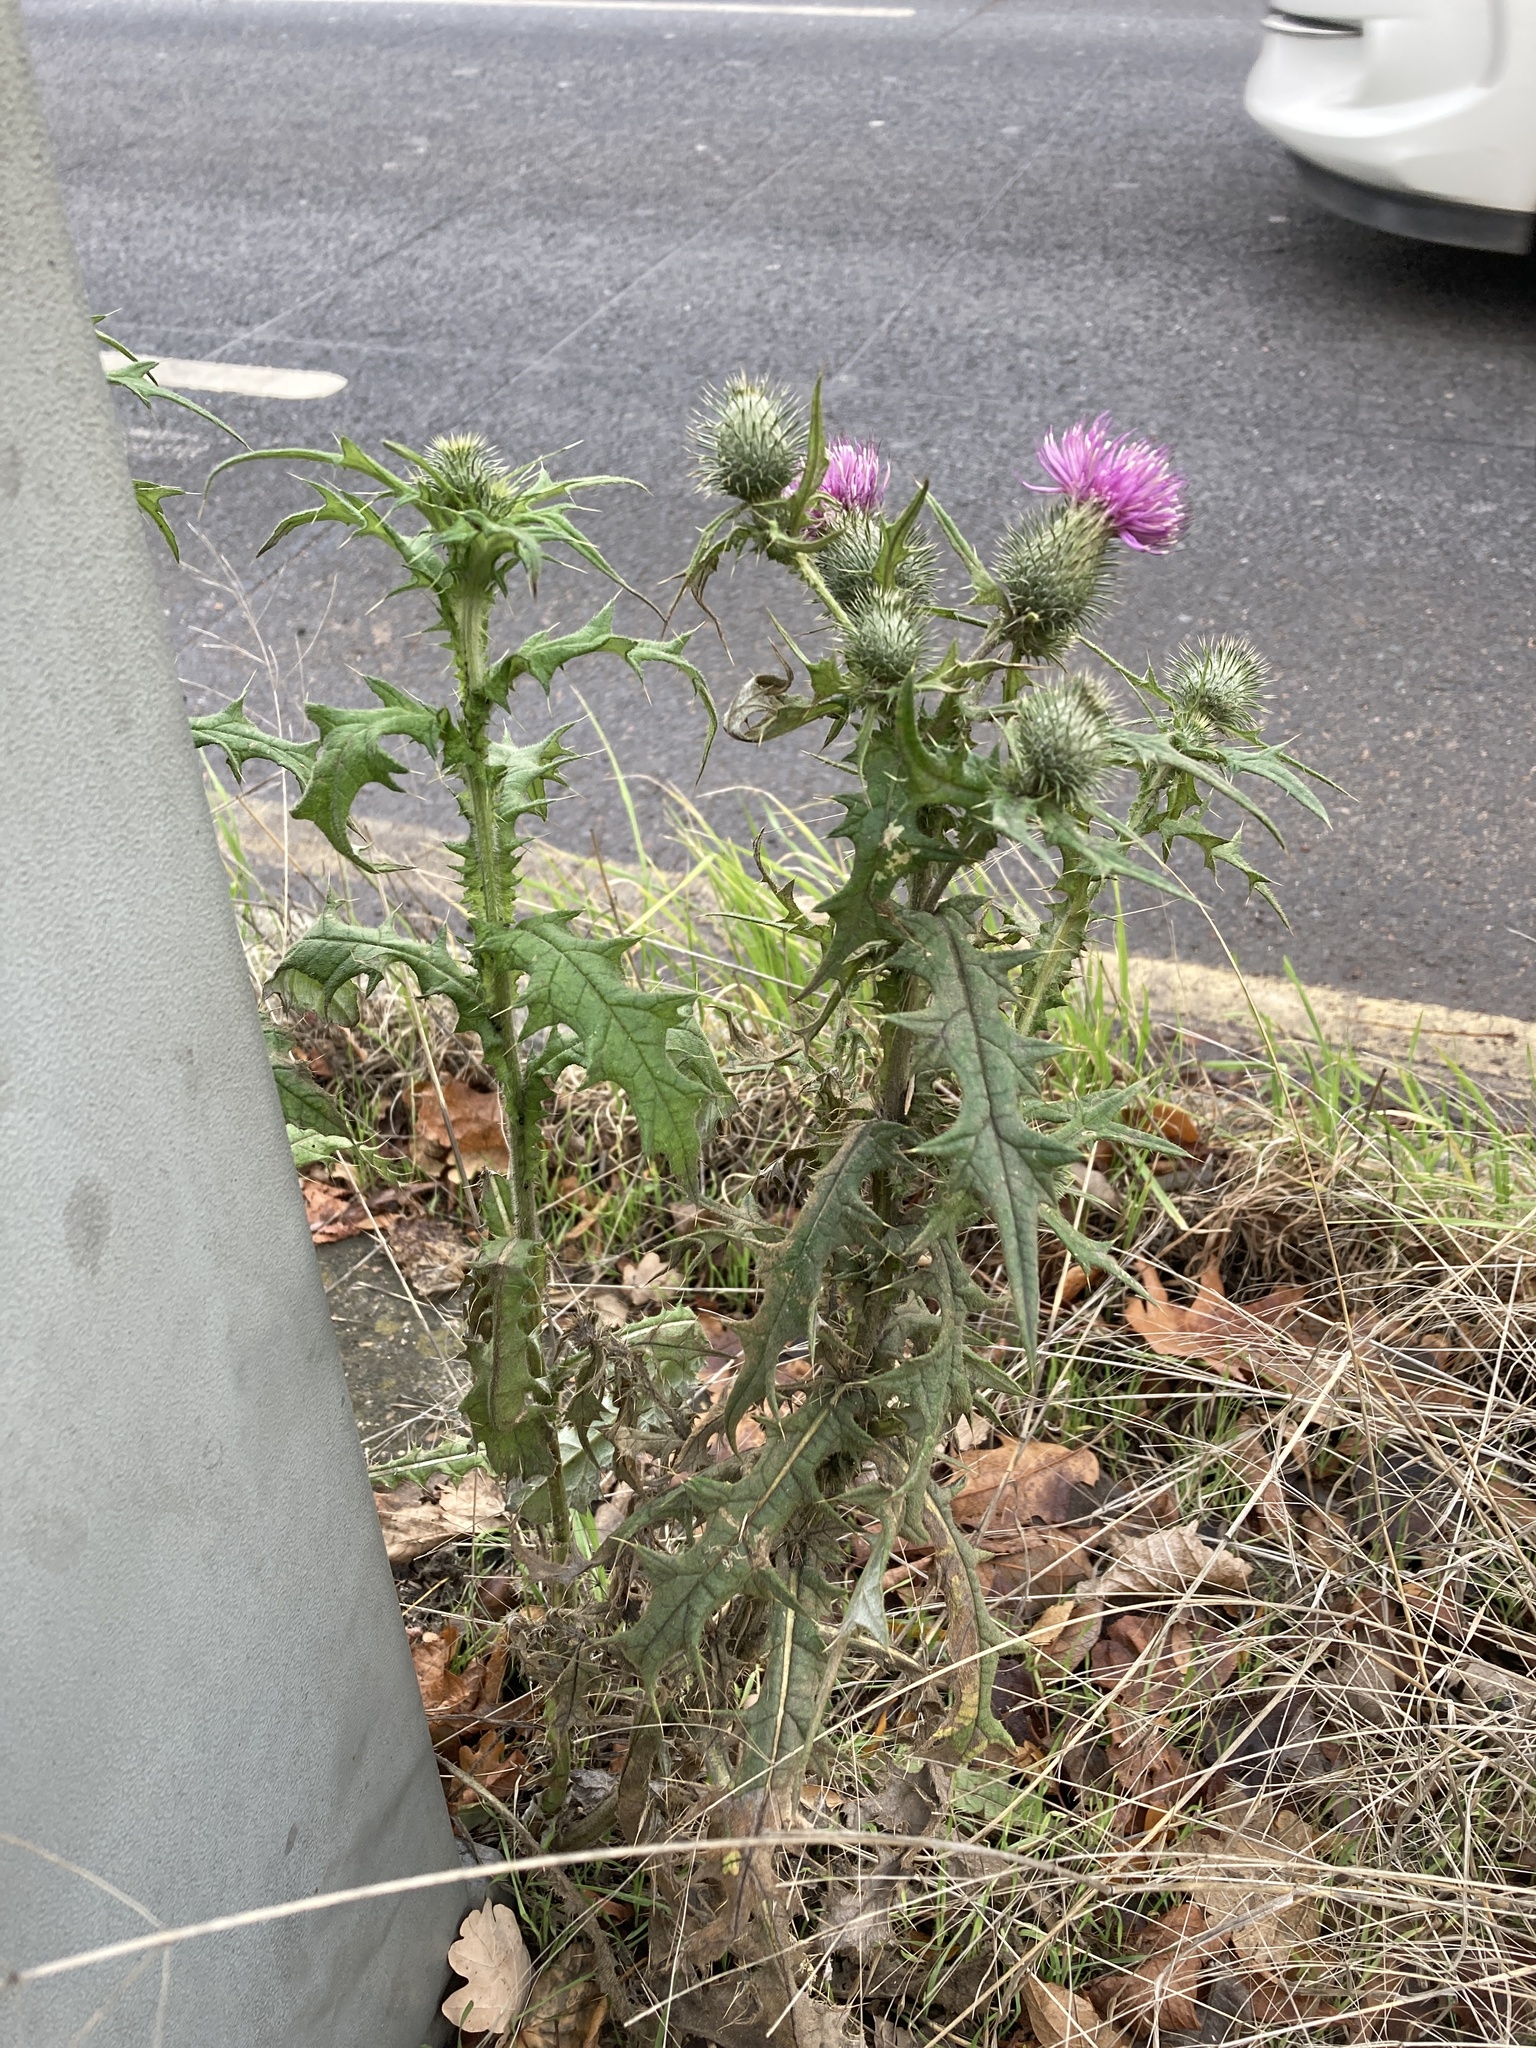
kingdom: Plantae
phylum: Tracheophyta
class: Magnoliopsida
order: Asterales
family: Asteraceae
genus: Cirsium
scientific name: Cirsium vulgare
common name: Bull thistle
